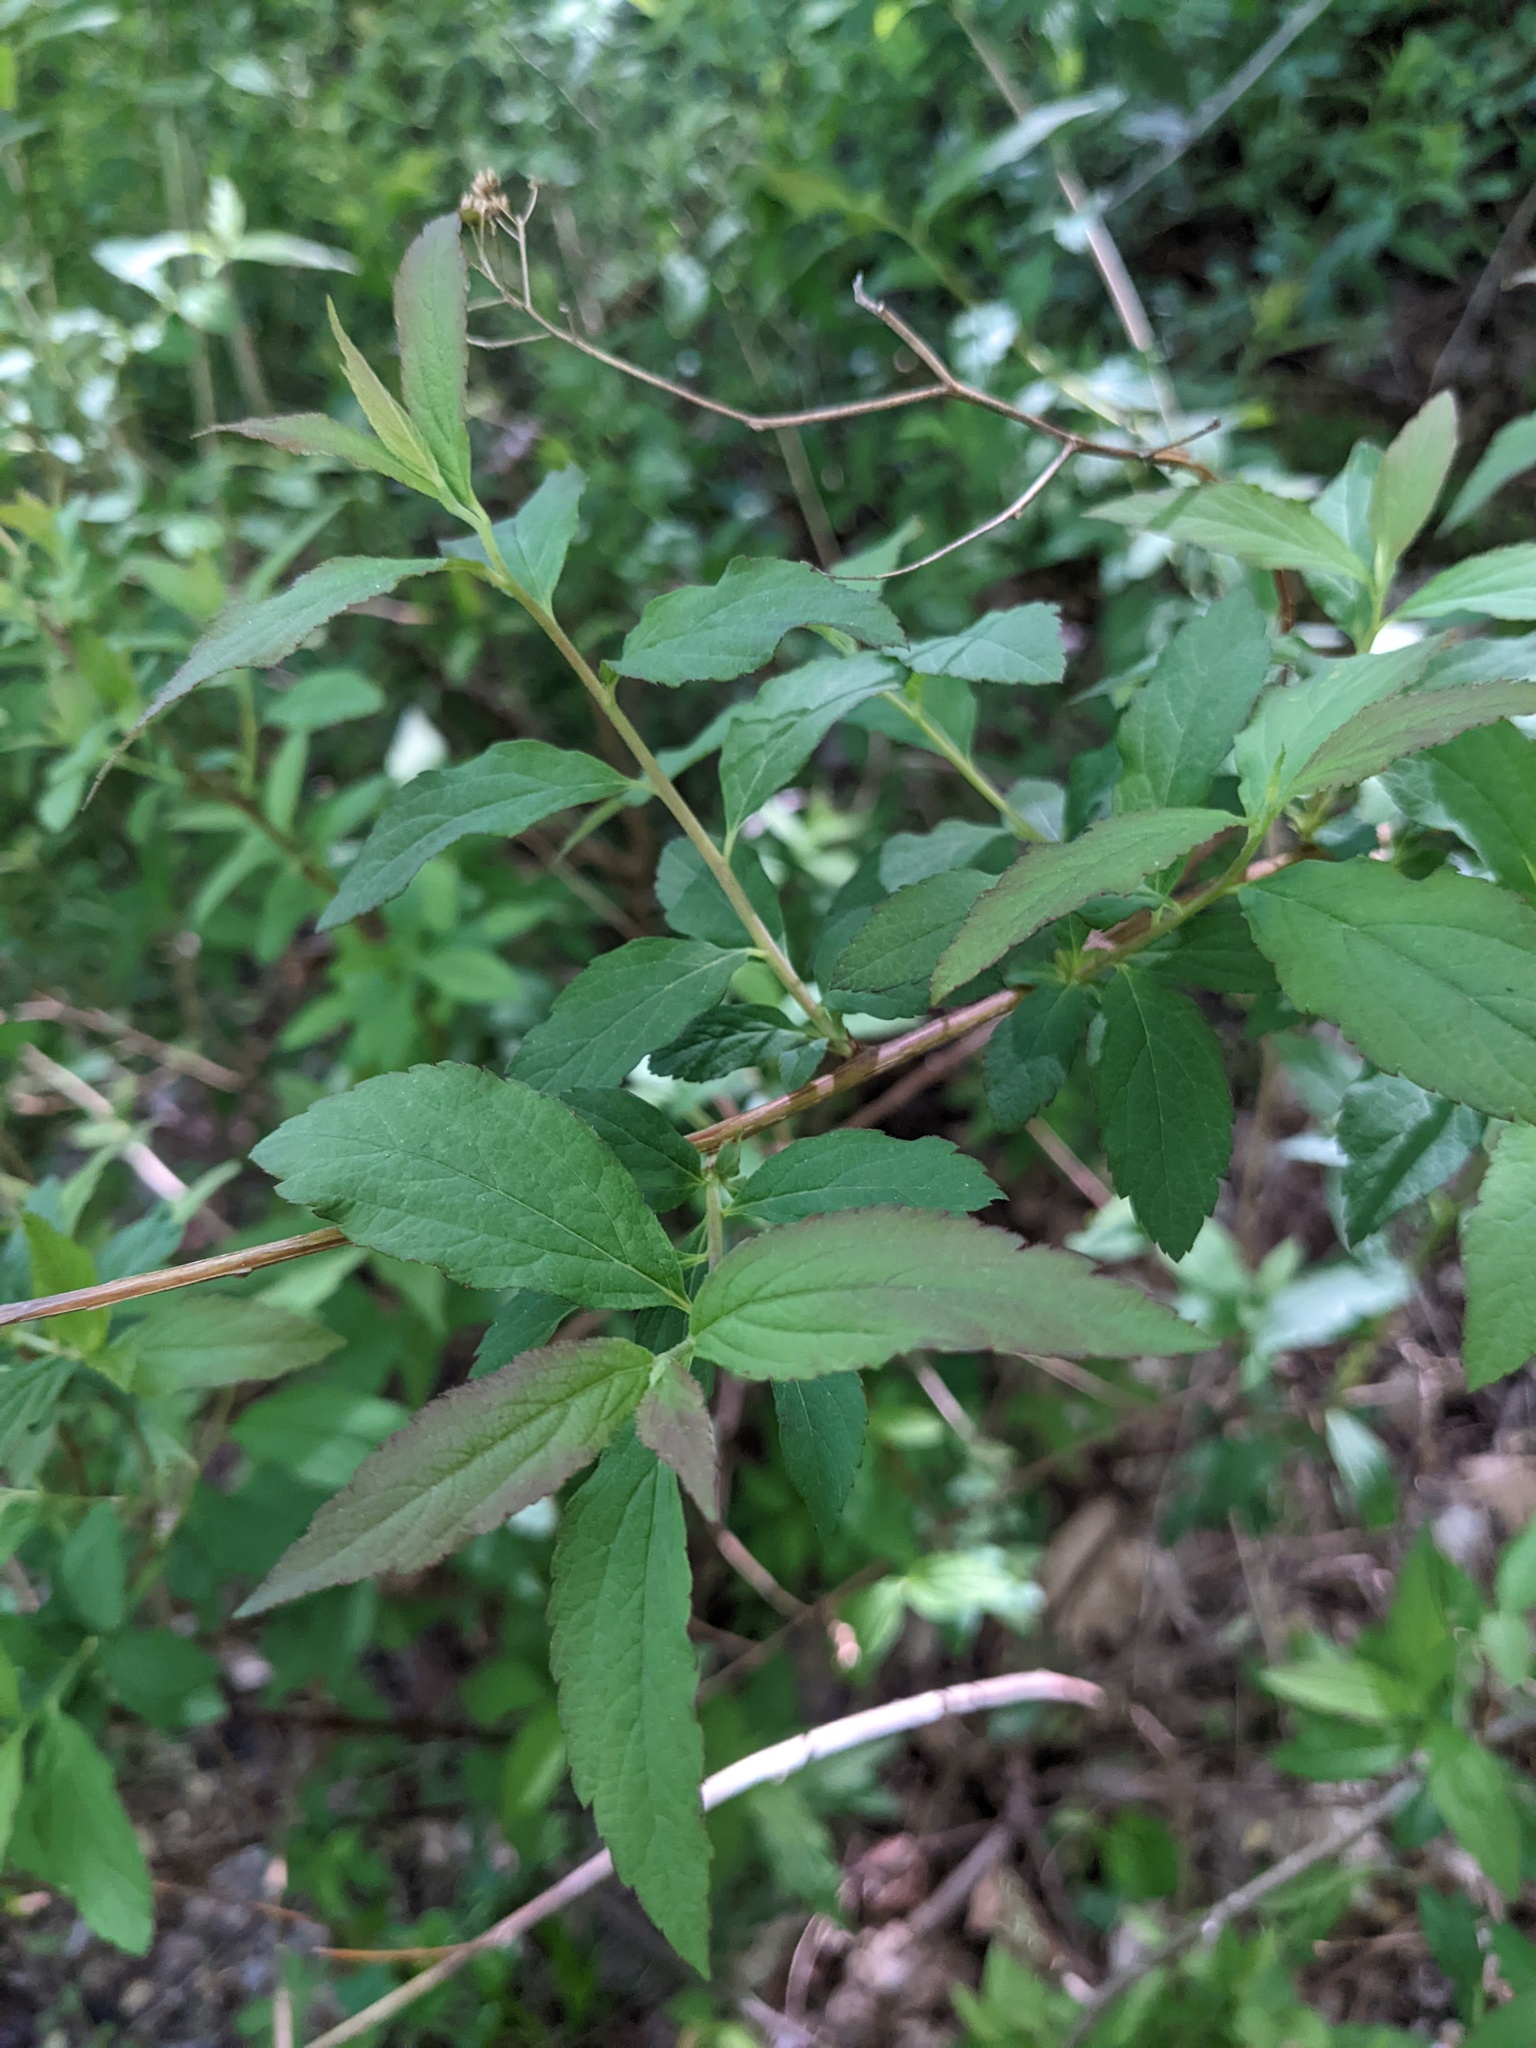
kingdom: Plantae
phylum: Tracheophyta
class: Magnoliopsida
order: Rosales
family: Rosaceae
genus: Spiraea
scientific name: Spiraea japonica
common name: Japanese spiraea
